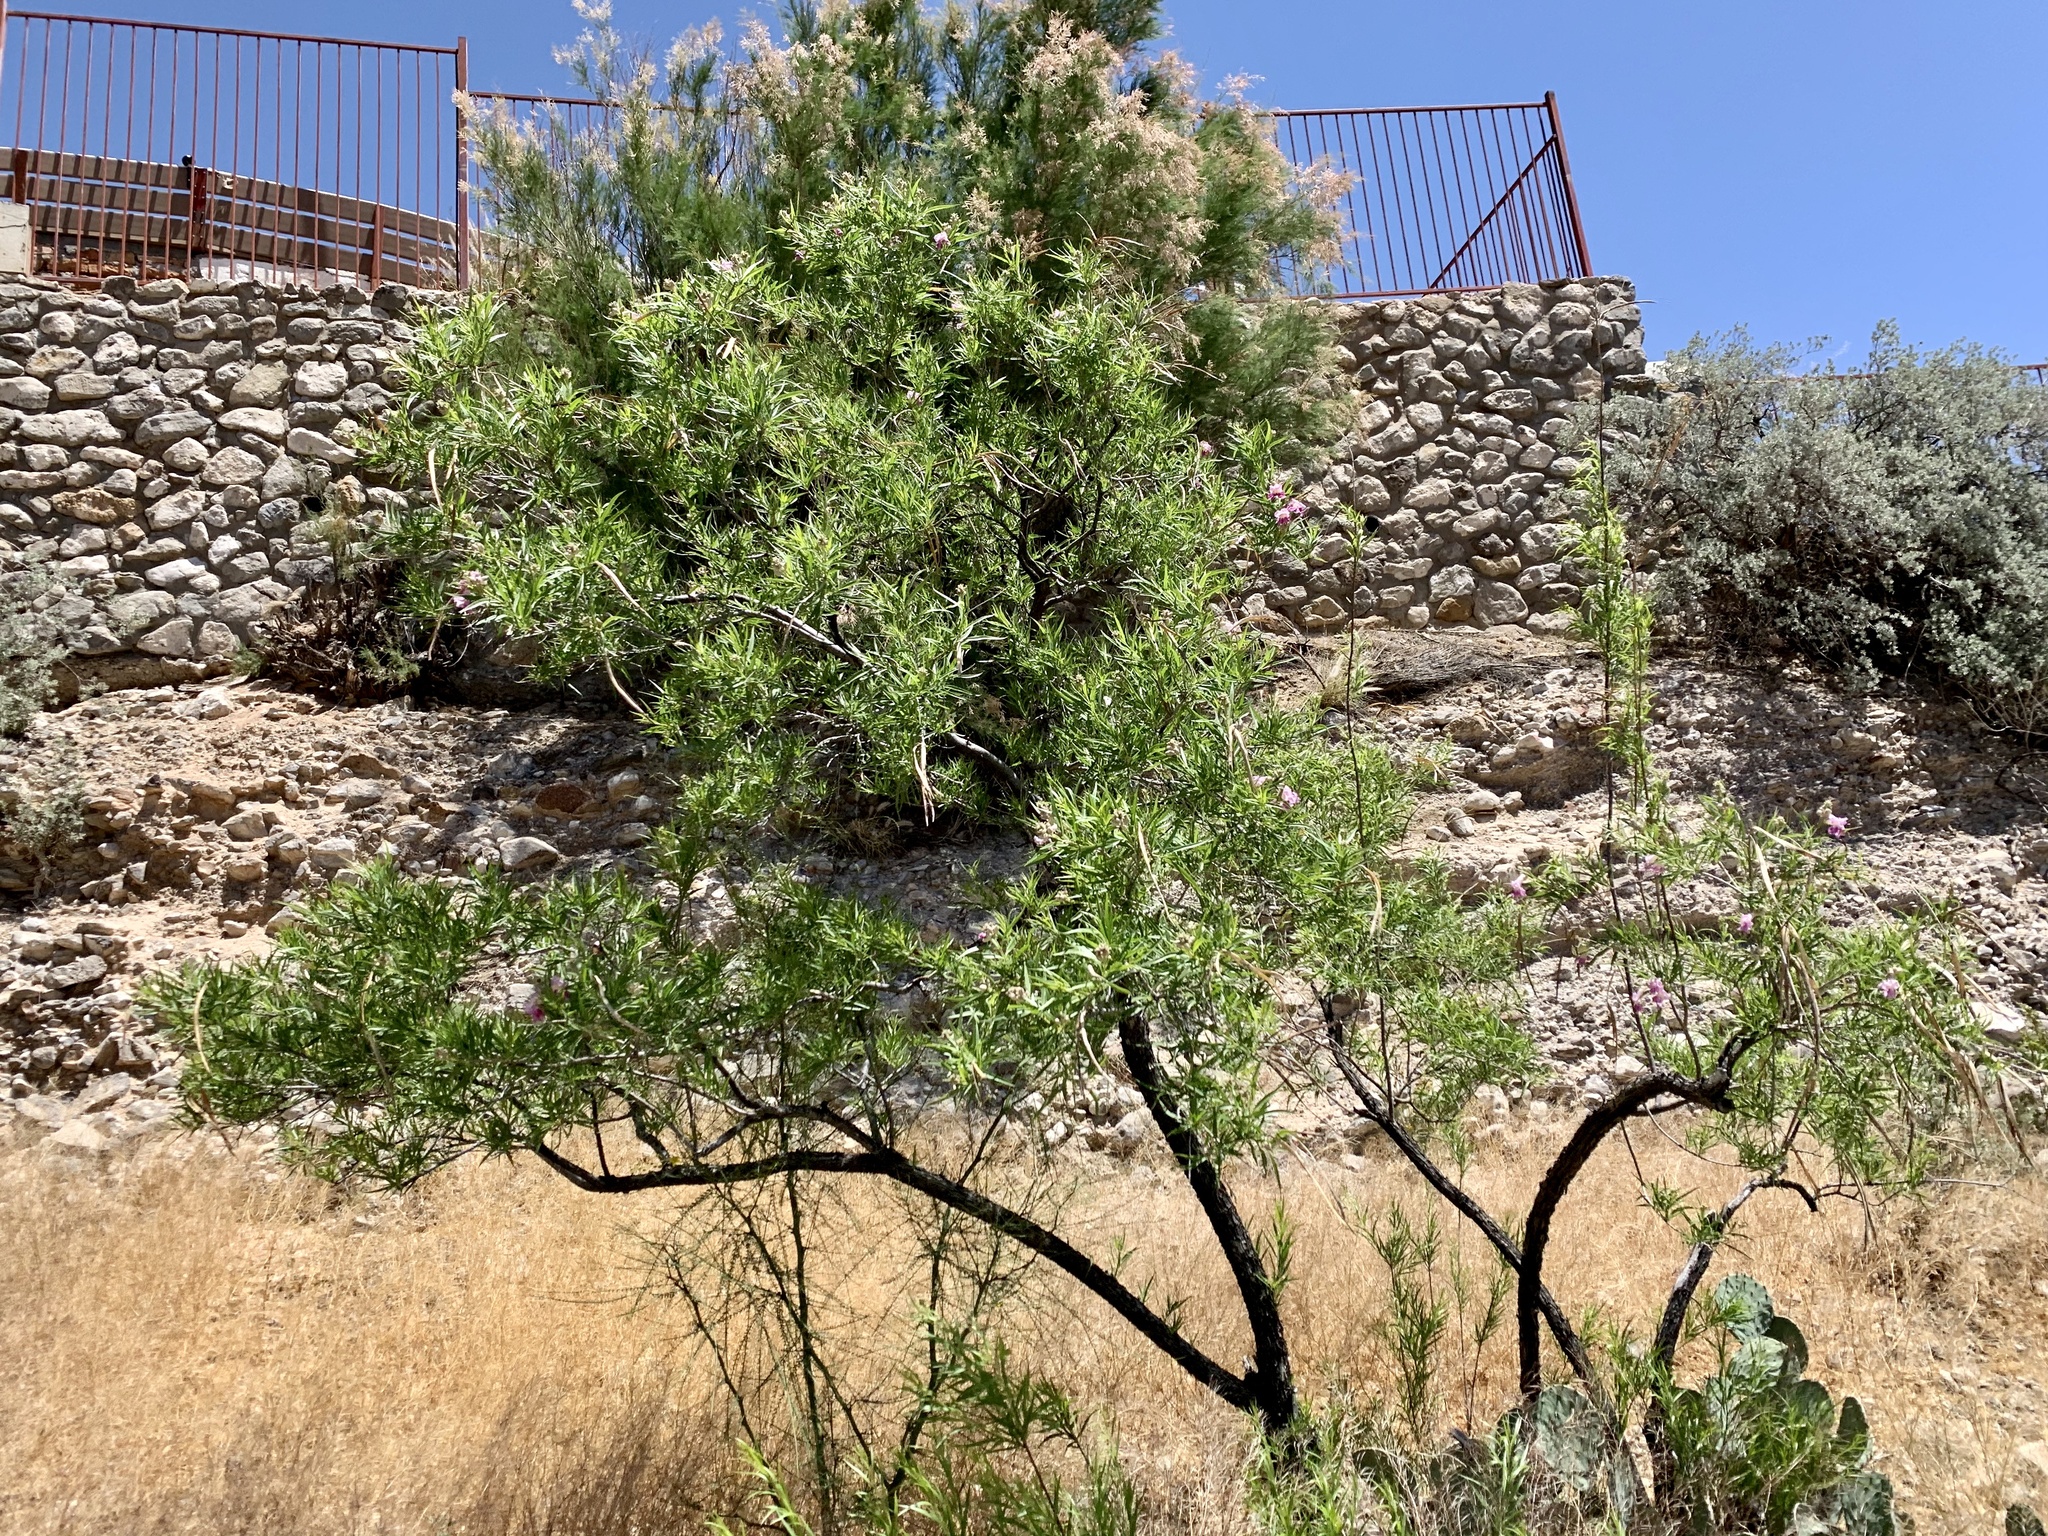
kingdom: Plantae
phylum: Tracheophyta
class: Magnoliopsida
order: Lamiales
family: Bignoniaceae
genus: Chilopsis
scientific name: Chilopsis linearis
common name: Desert-willow
